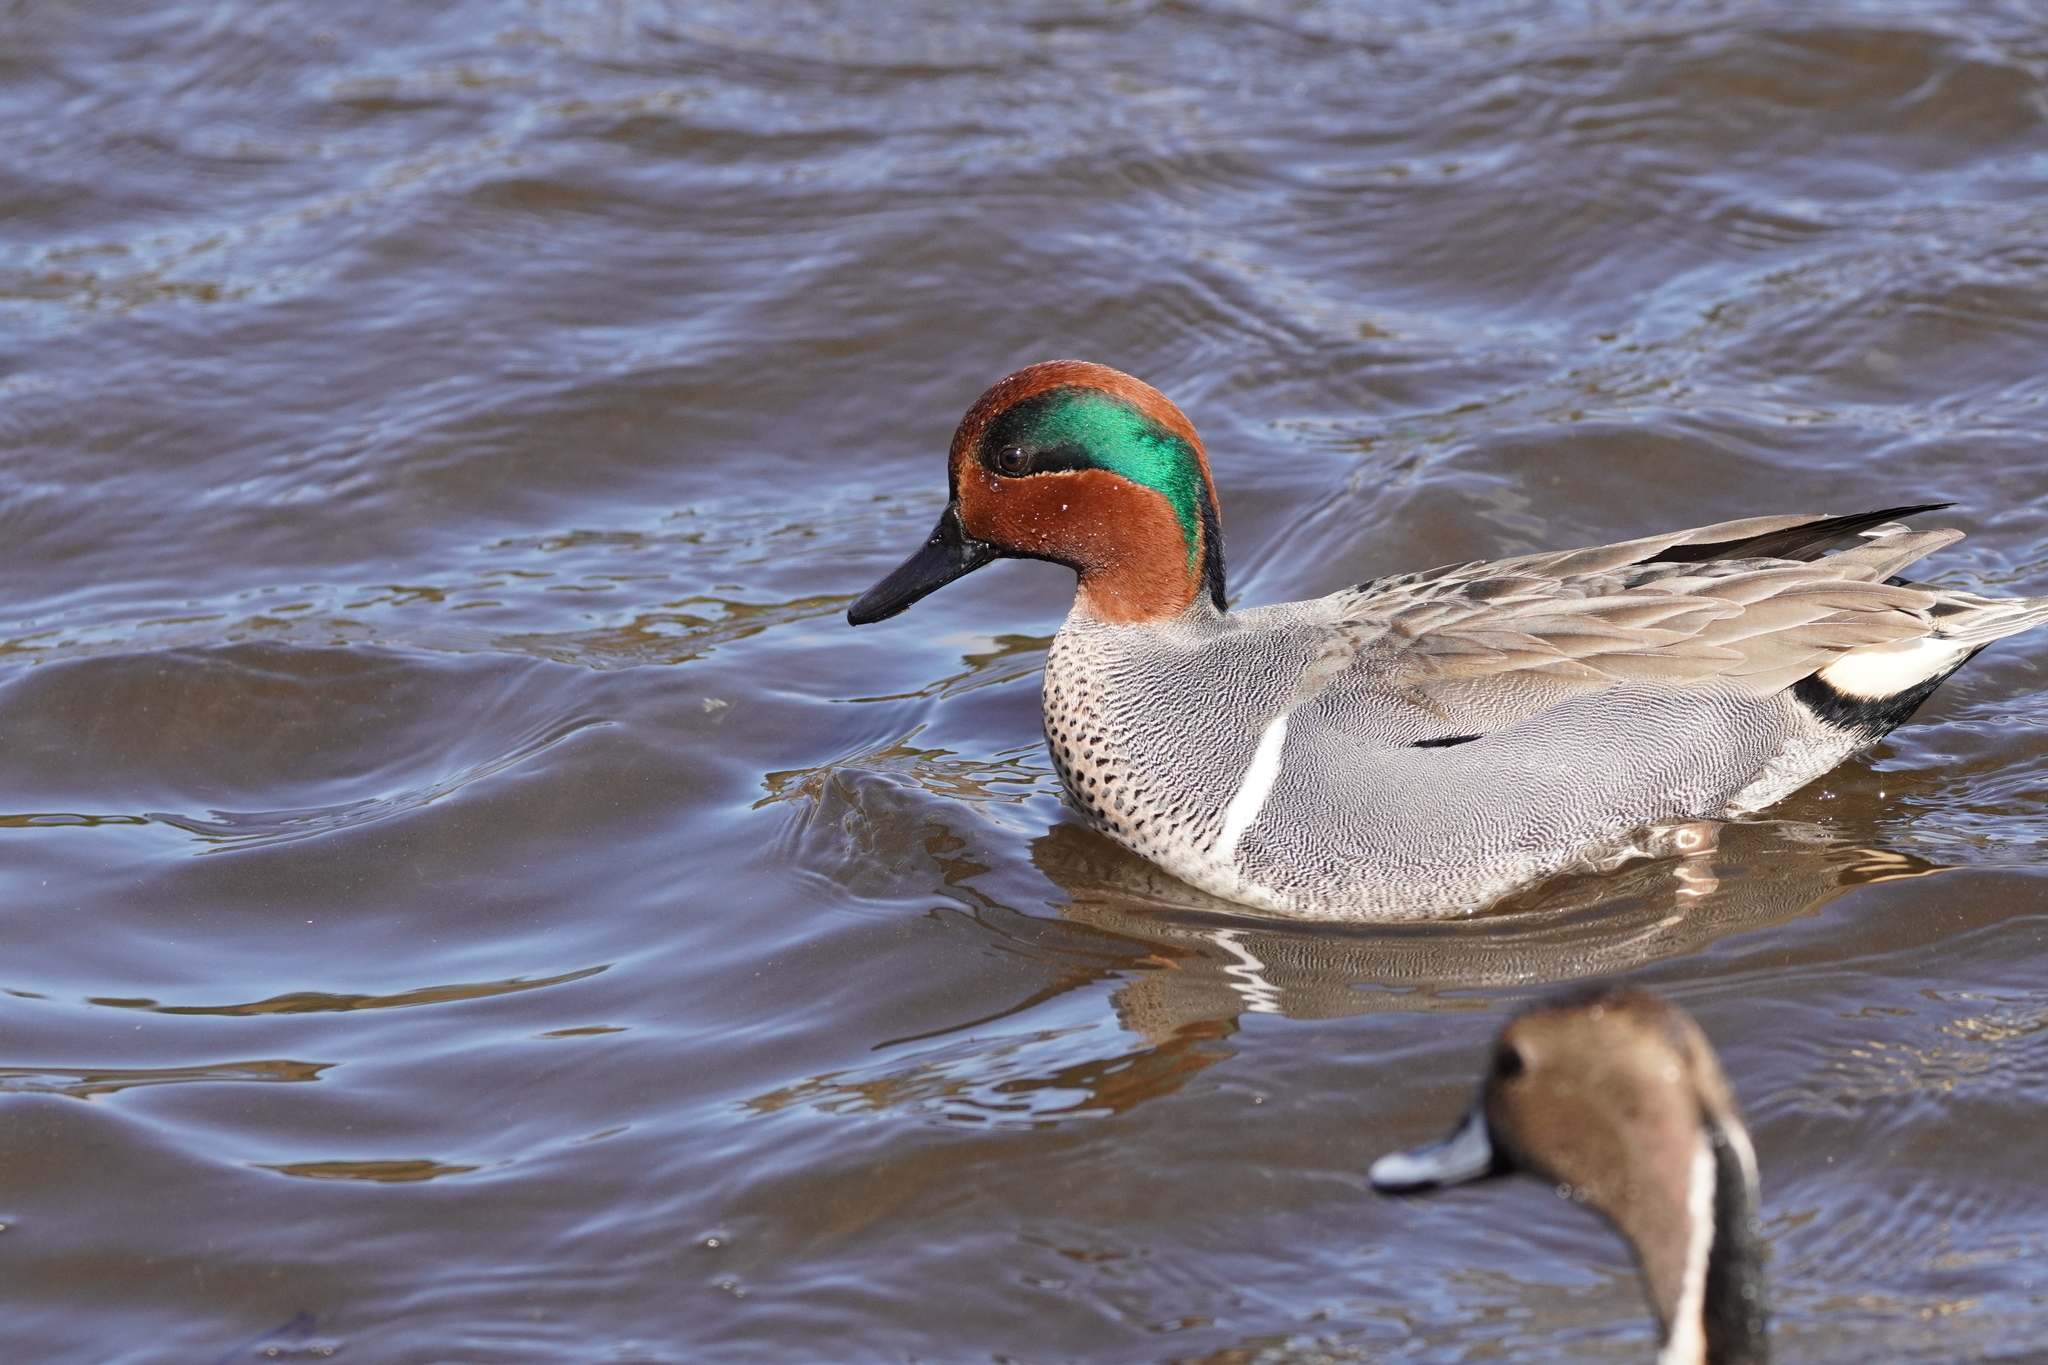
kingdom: Animalia
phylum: Chordata
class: Aves
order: Anseriformes
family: Anatidae
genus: Anas
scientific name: Anas crecca
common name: Eurasian teal
